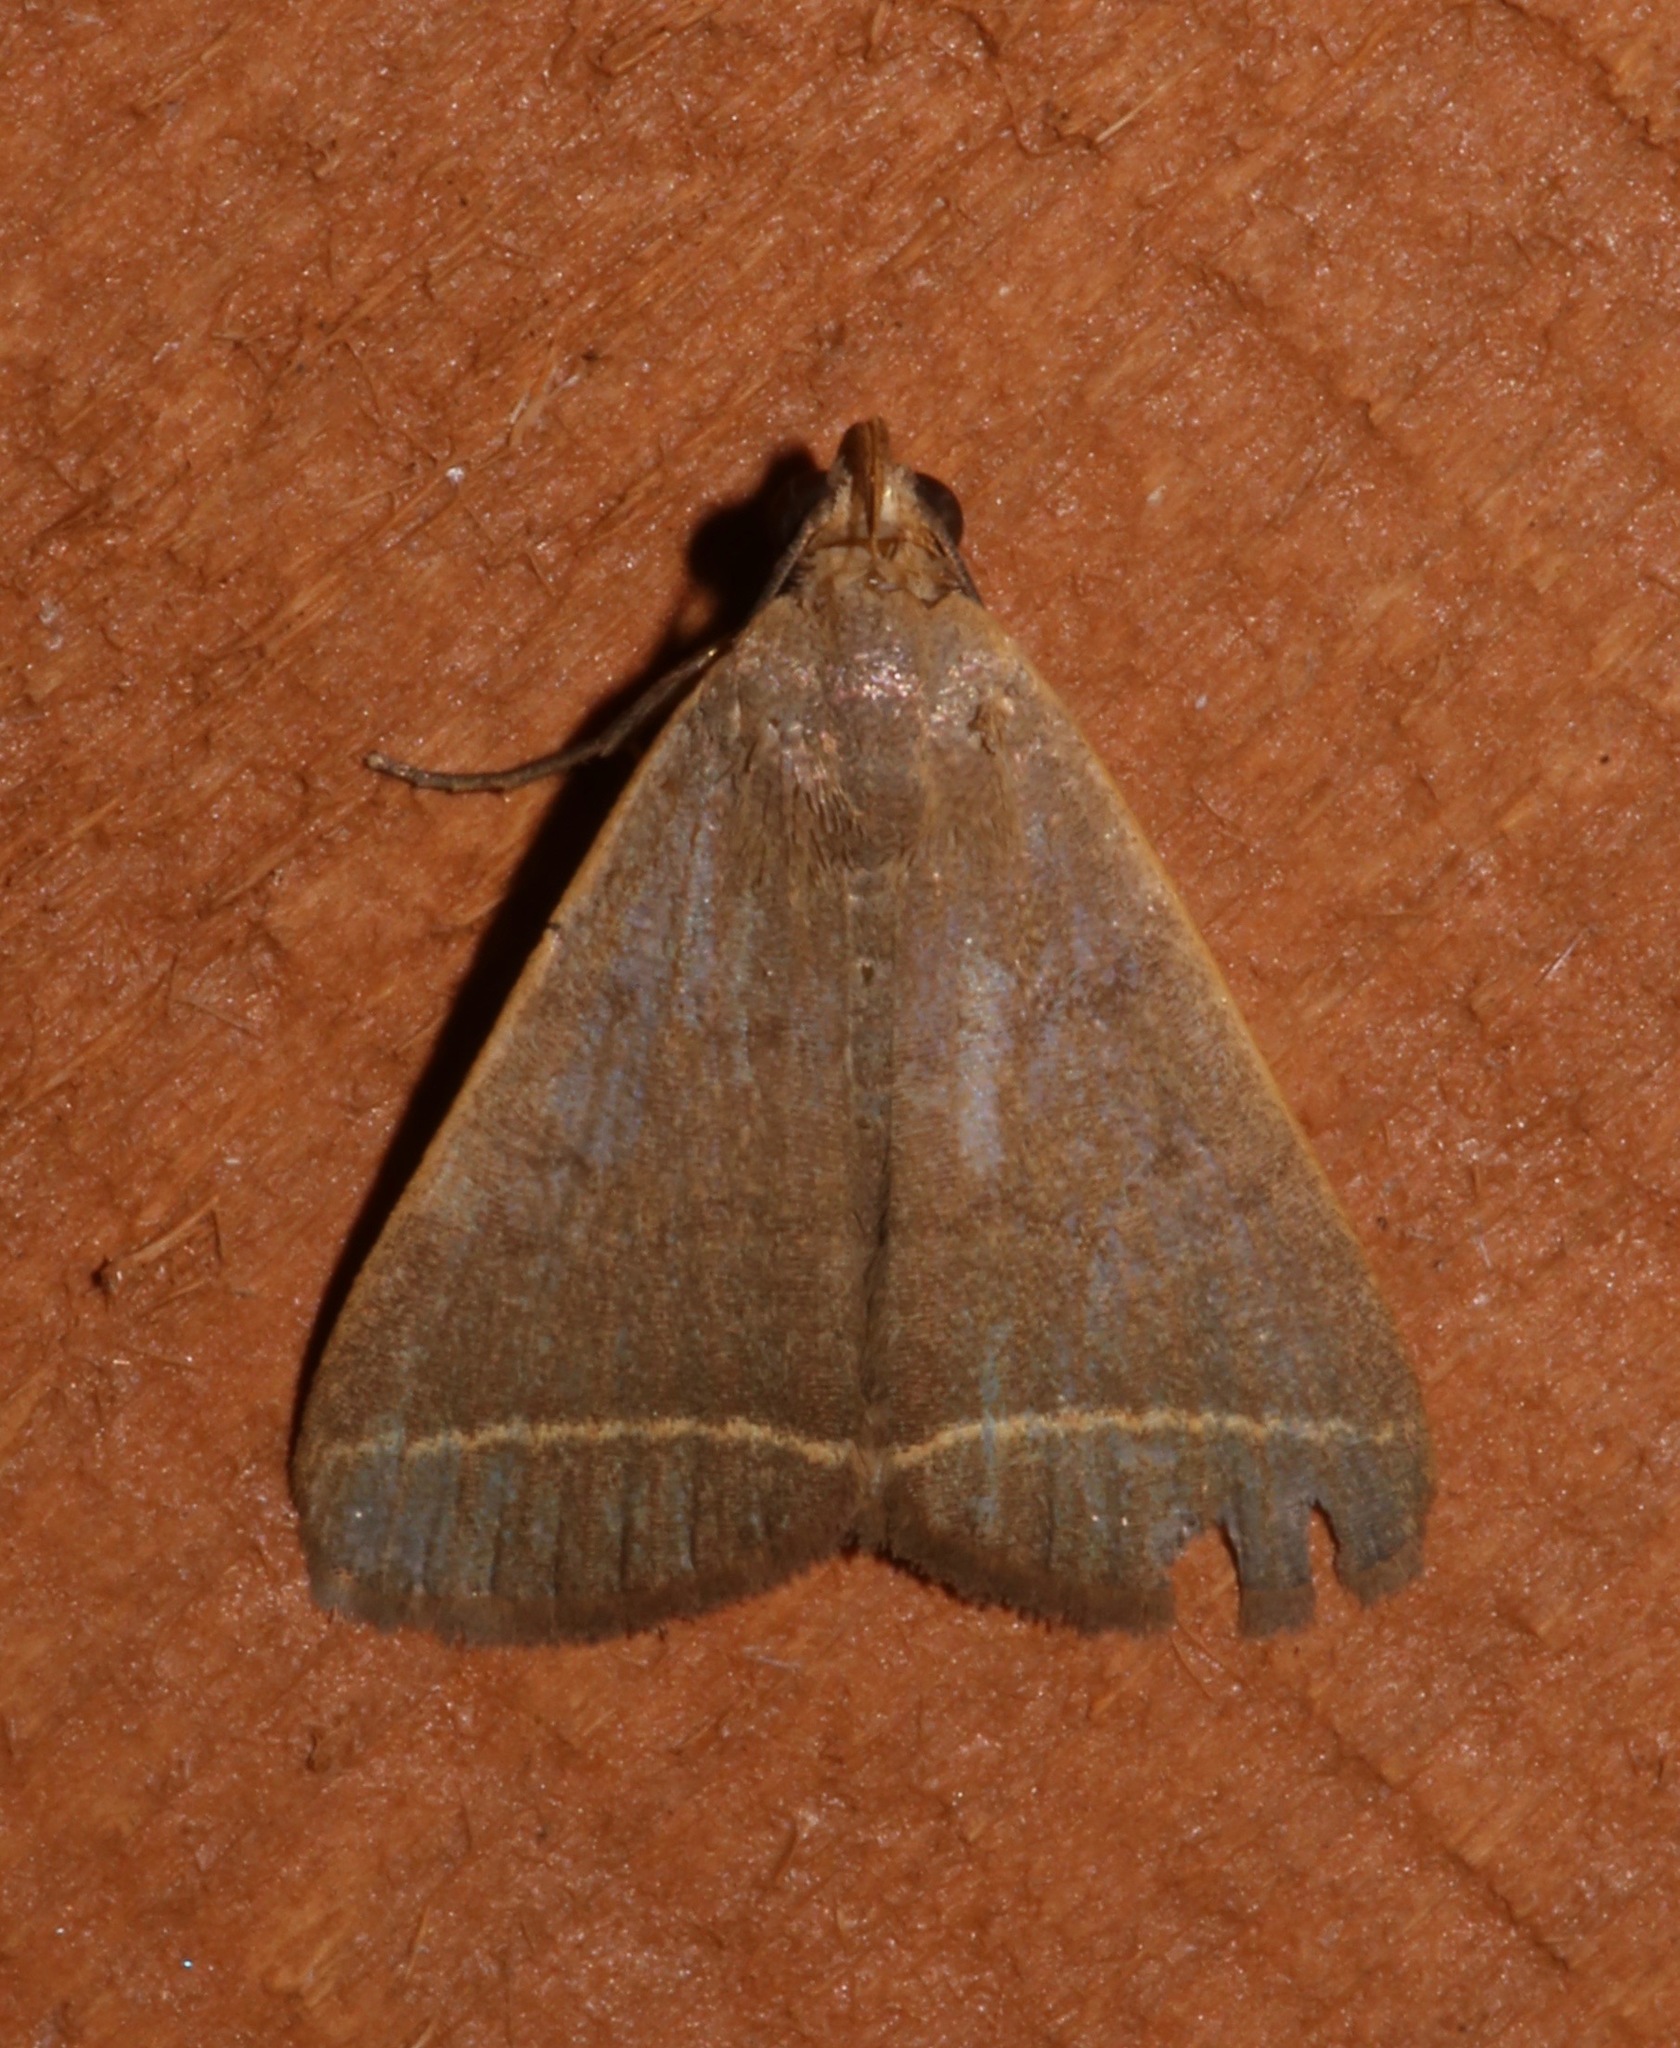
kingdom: Animalia
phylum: Arthropoda
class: Insecta
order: Lepidoptera
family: Erebidae
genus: Simplicia
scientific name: Simplicia cornicalis
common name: Tiki hut litter moth
